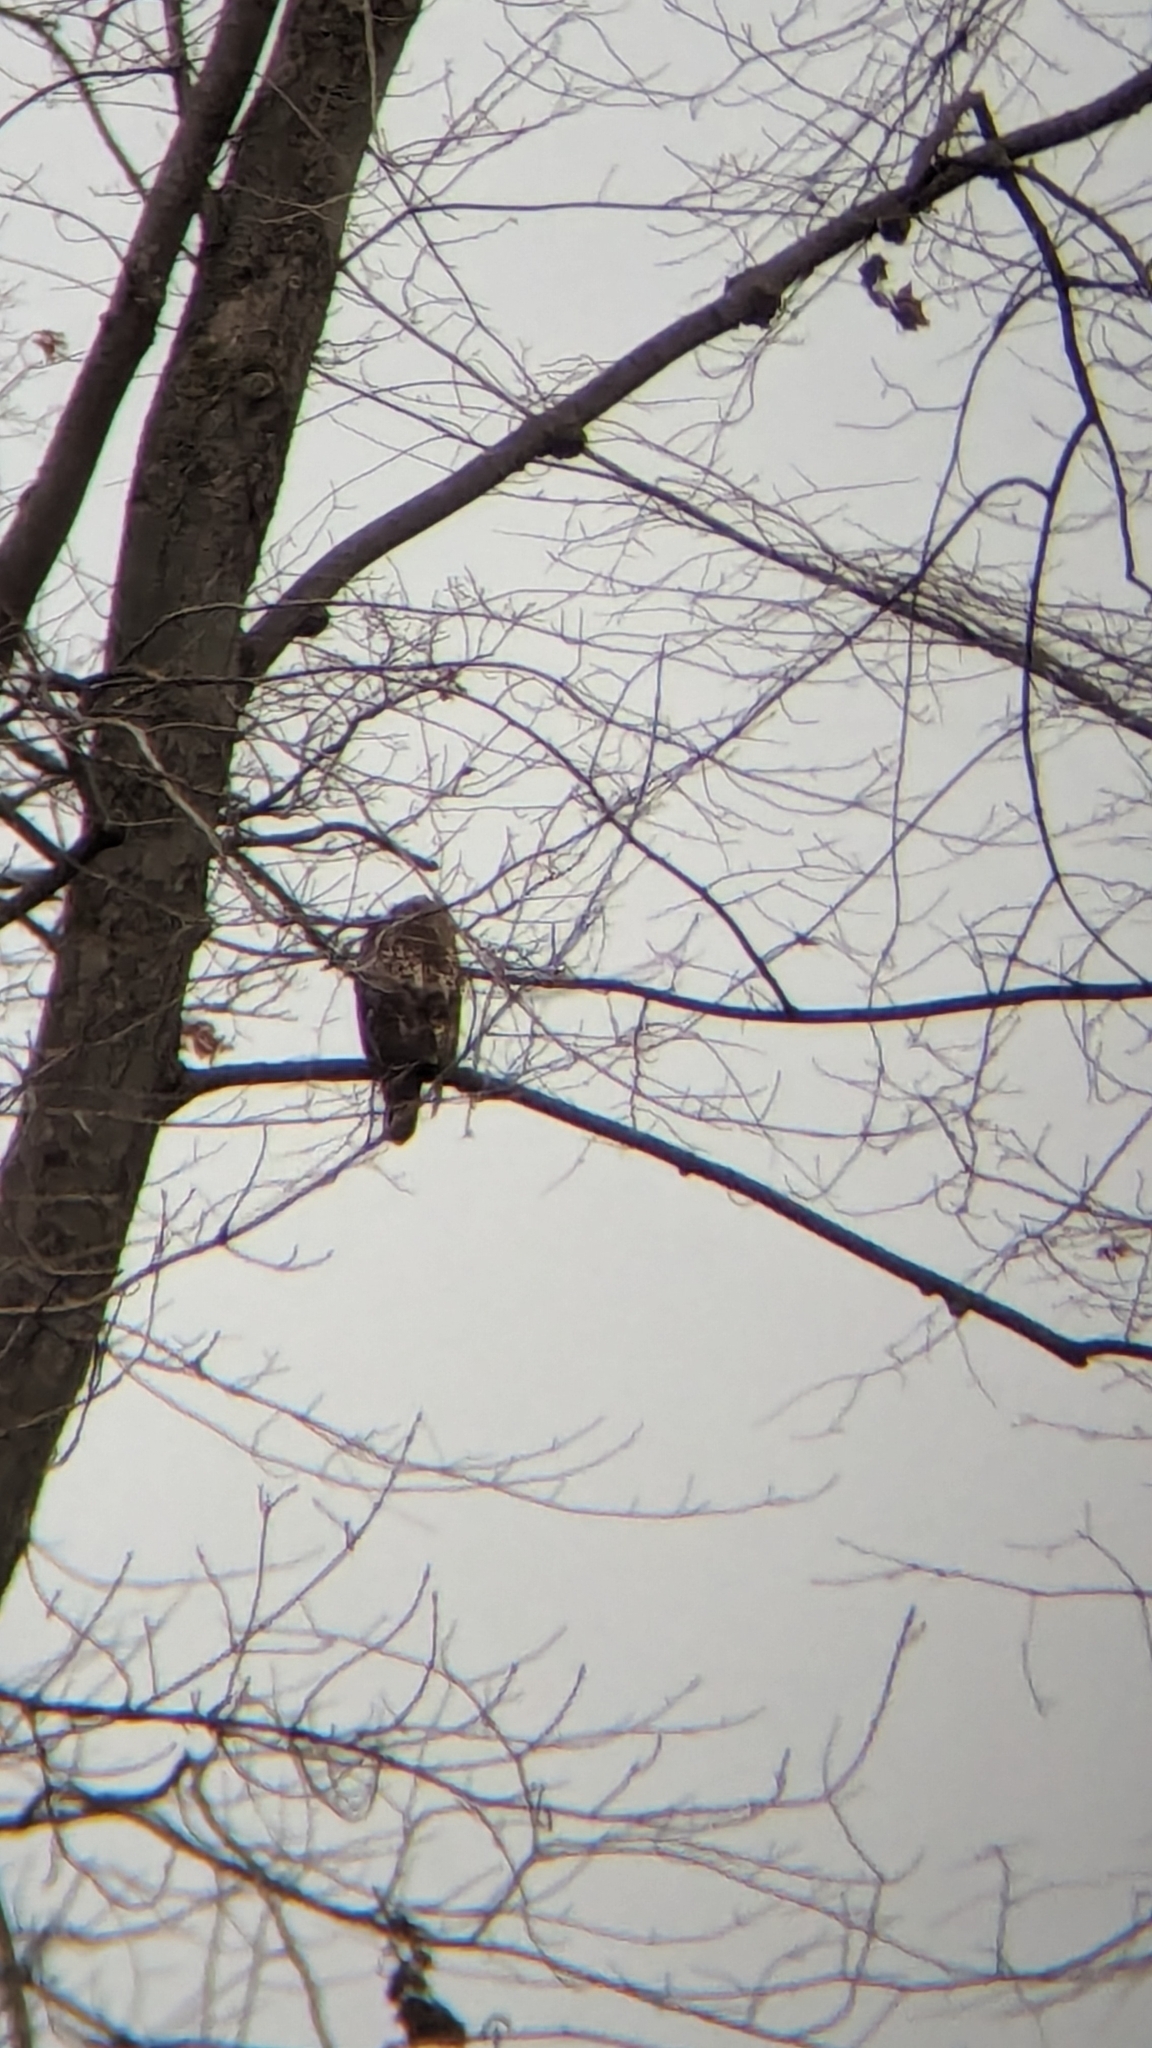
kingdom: Animalia
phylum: Chordata
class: Aves
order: Accipitriformes
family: Accipitridae
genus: Buteo
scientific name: Buteo jamaicensis
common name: Red-tailed hawk
